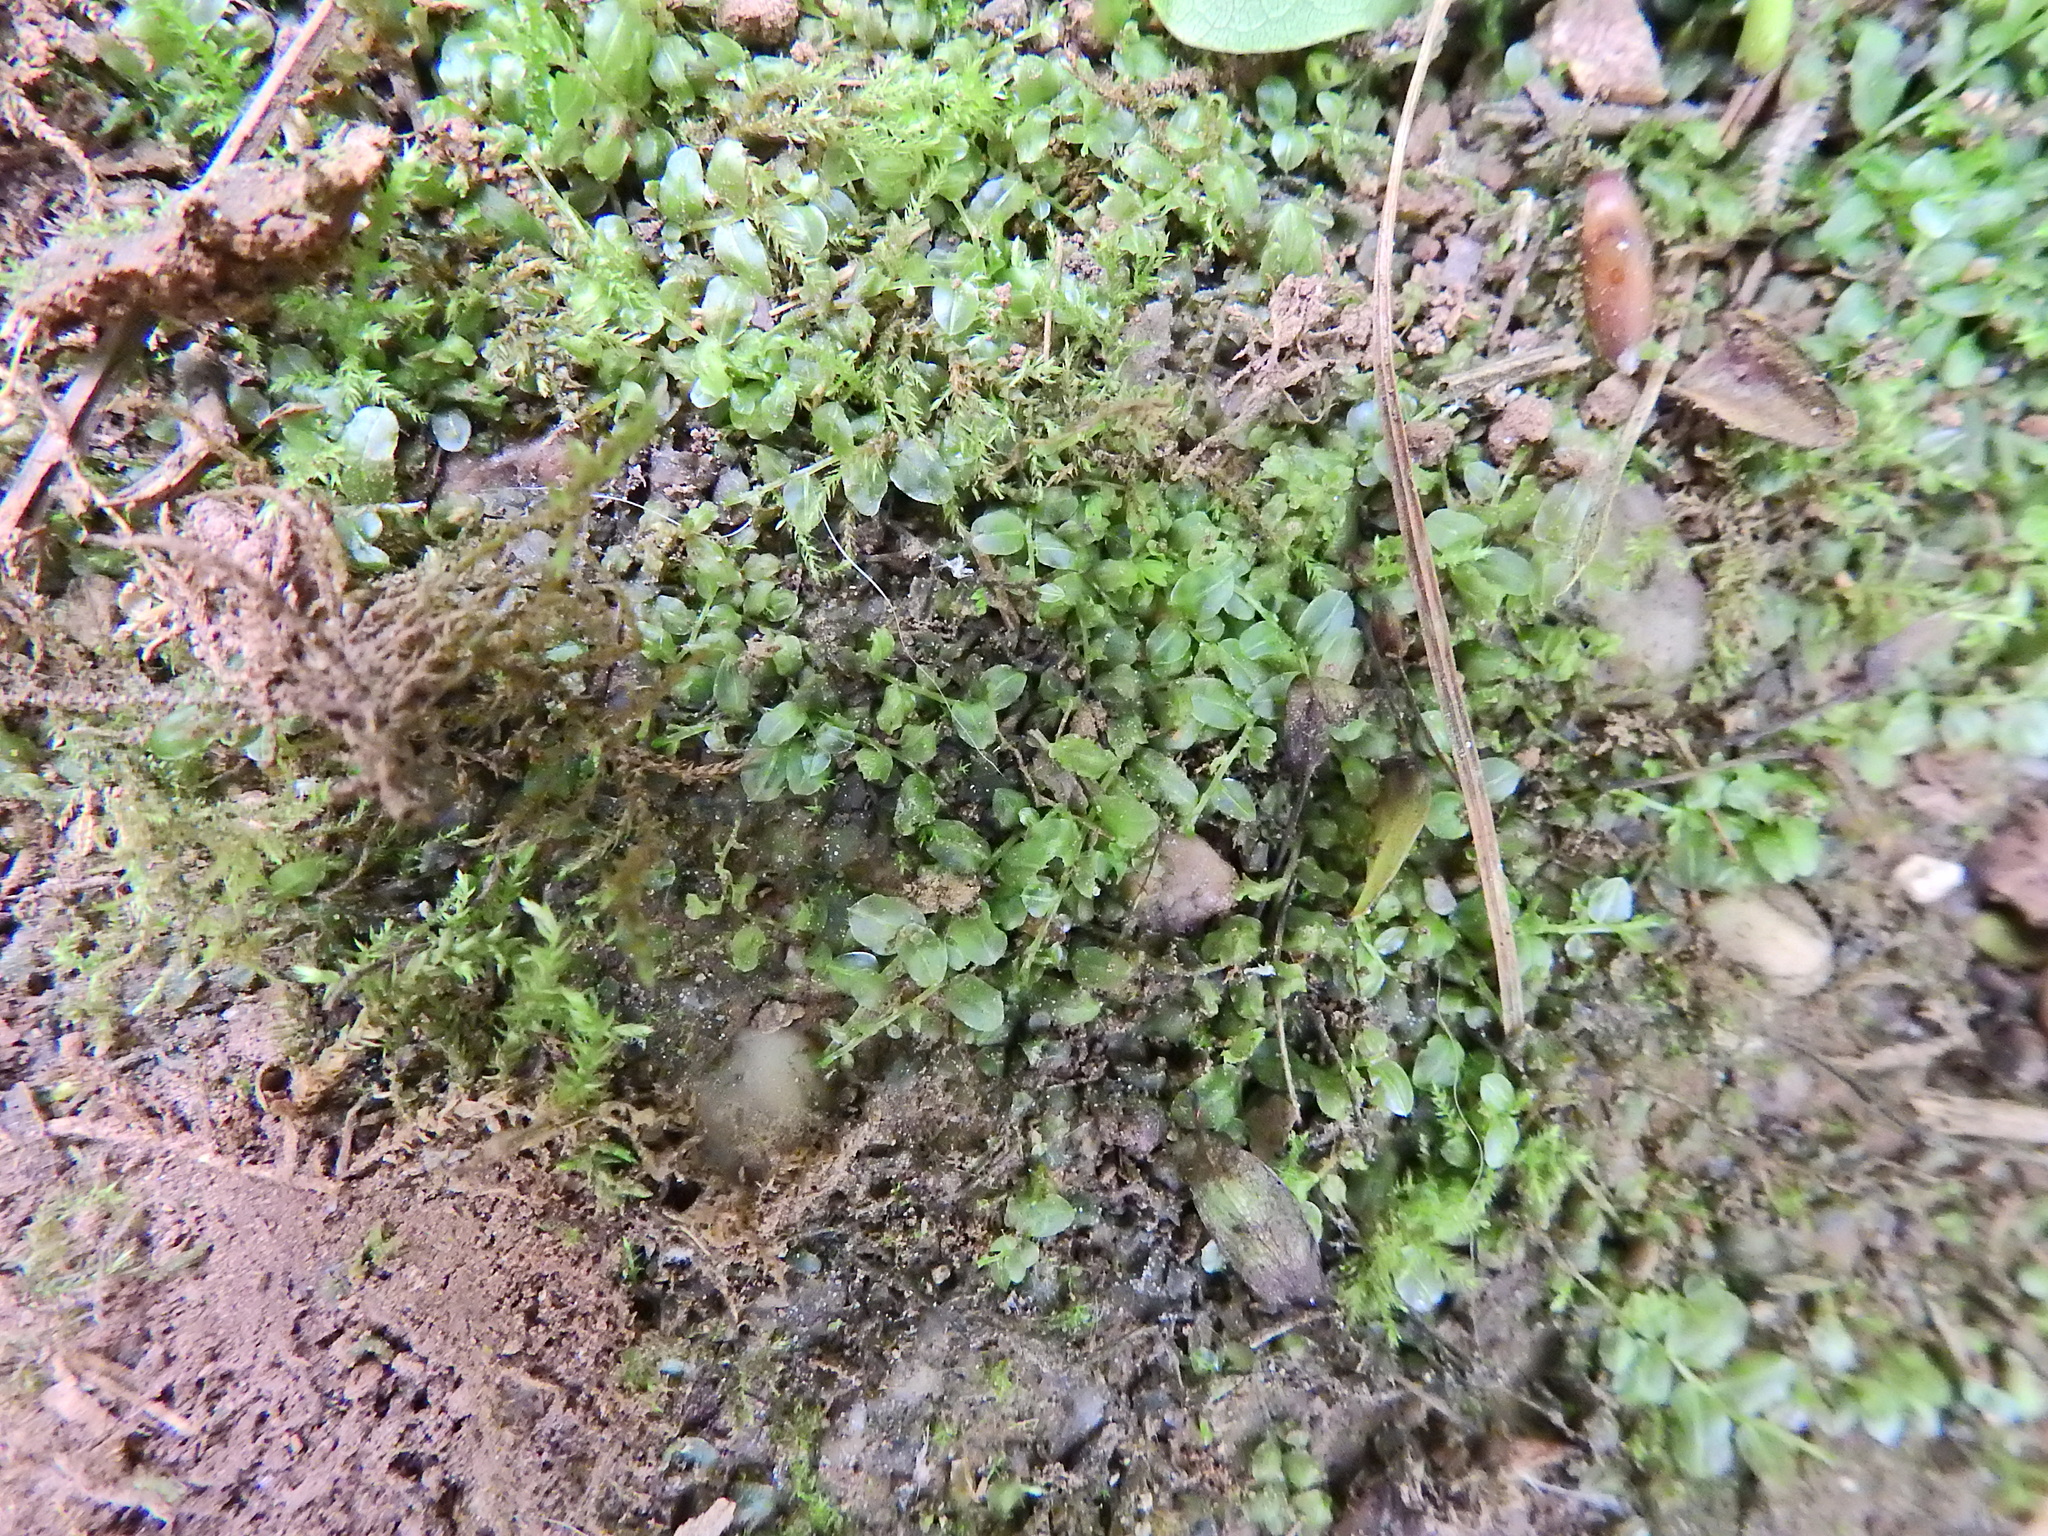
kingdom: Plantae
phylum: Bryophyta
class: Bryopsida
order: Bryales
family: Mniaceae
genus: Plagiomnium
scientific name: Plagiomnium rostratum
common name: Long-beaked leafy moss
